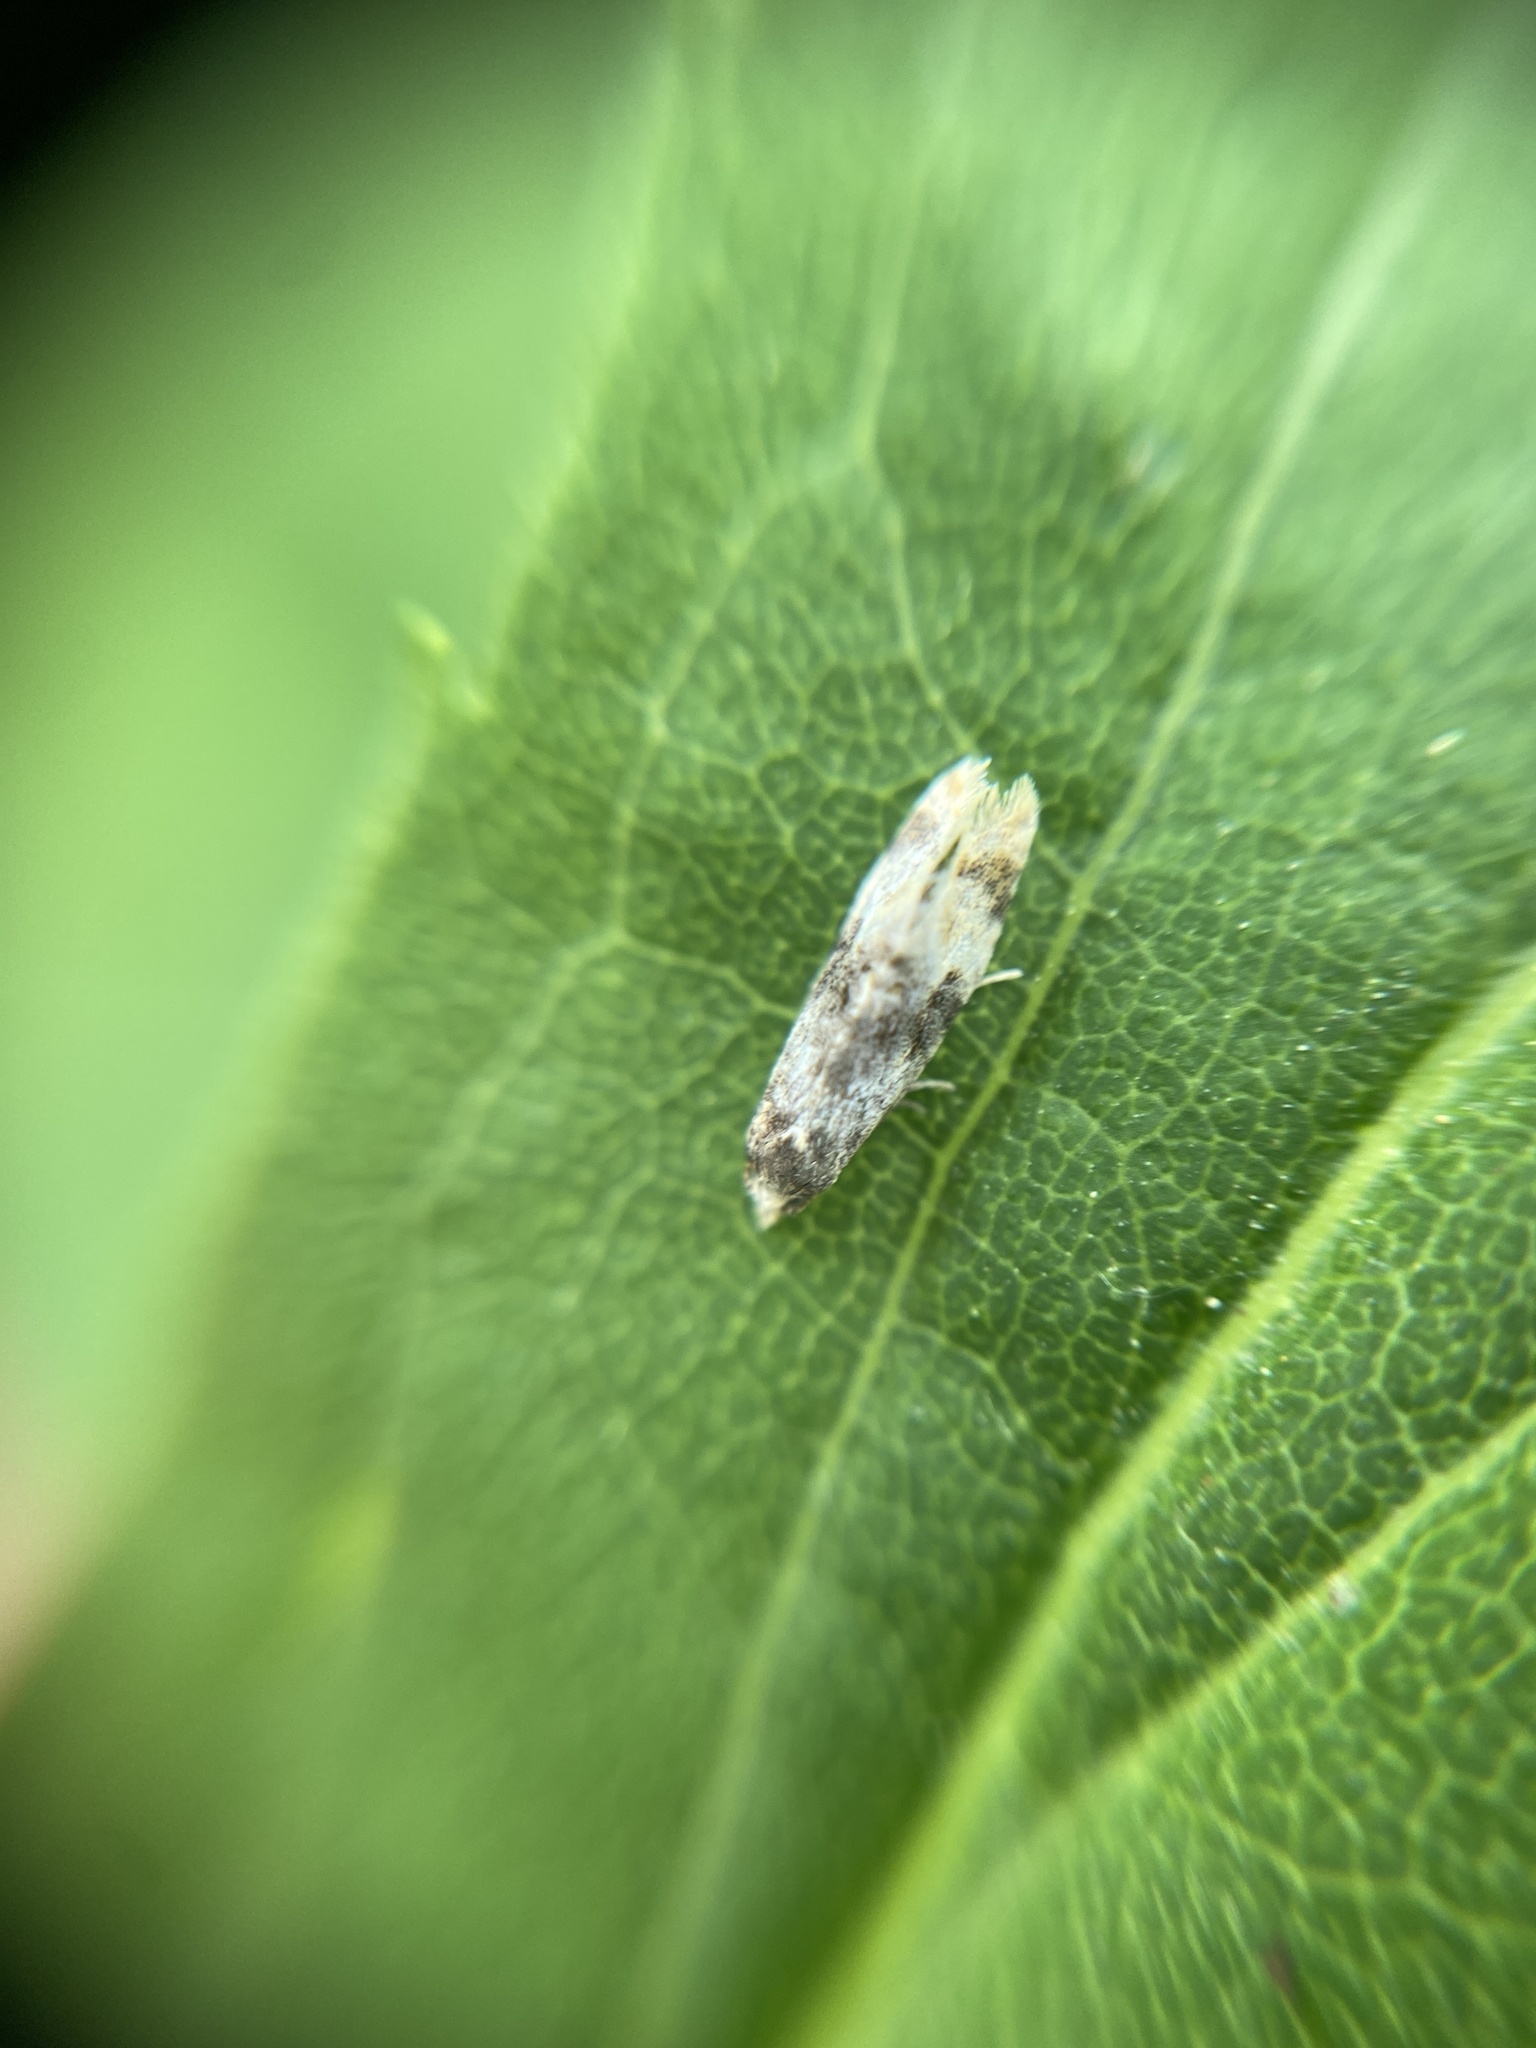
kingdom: Animalia
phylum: Arthropoda
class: Insecta
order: Lepidoptera
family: Tortricidae
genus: Thyraylia
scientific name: Thyraylia nana
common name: Birch conch
